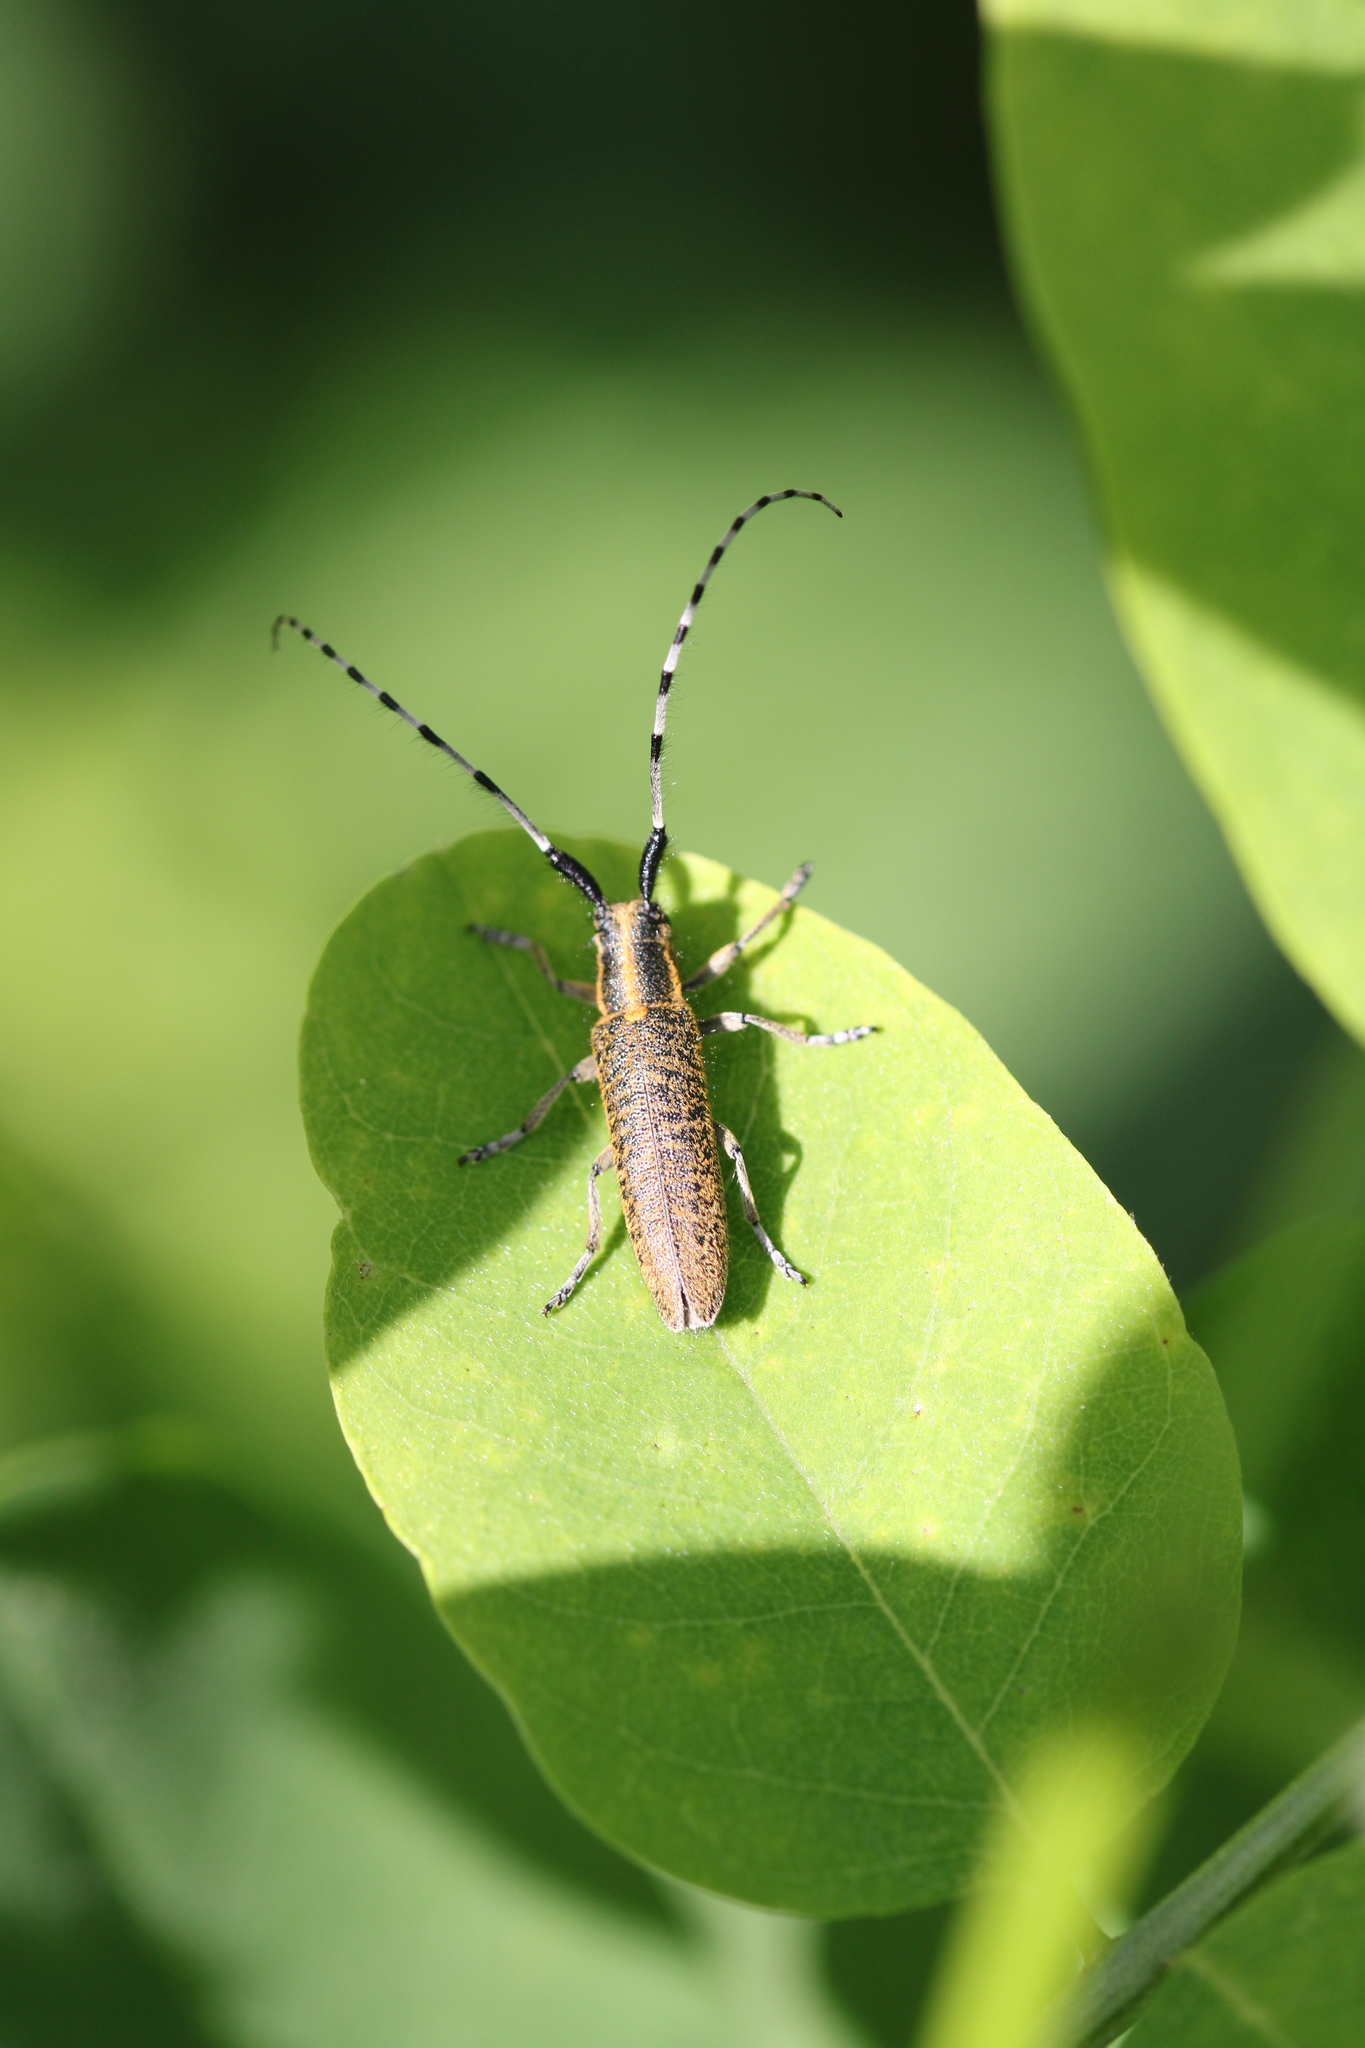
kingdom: Animalia
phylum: Arthropoda
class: Insecta
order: Coleoptera
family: Cerambycidae
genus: Agapanthia
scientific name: Agapanthia villosoviridescens
